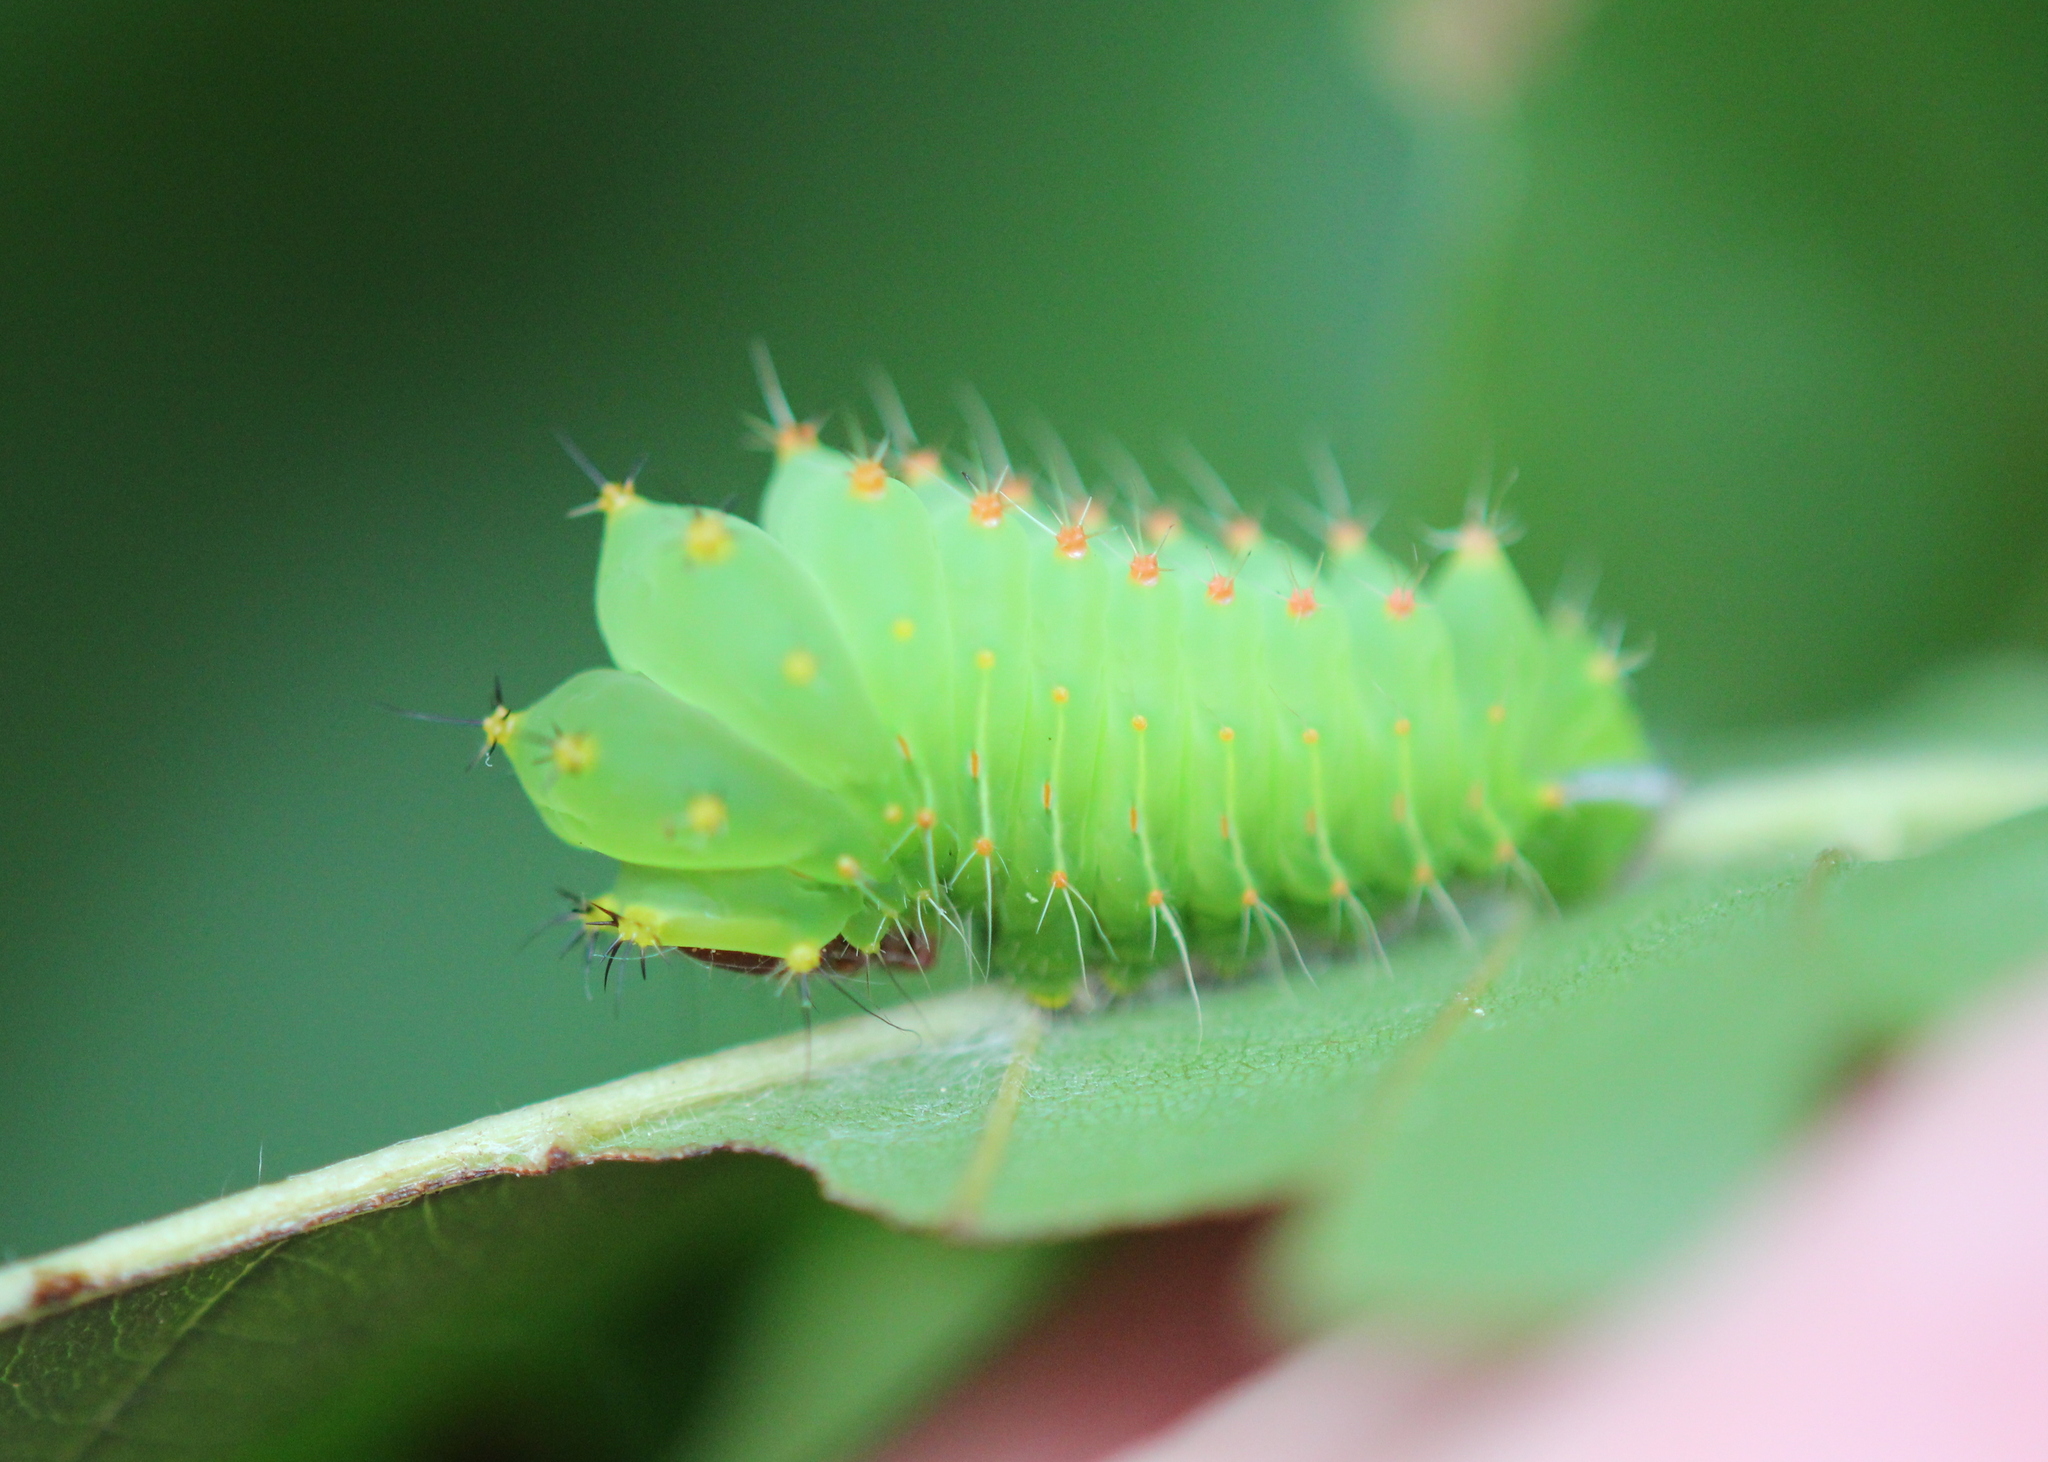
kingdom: Animalia
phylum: Arthropoda
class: Insecta
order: Lepidoptera
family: Saturniidae
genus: Antheraea
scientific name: Antheraea polyphemus
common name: Polyphemus moth
